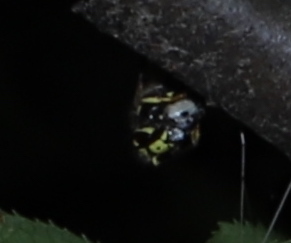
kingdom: Animalia
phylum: Arthropoda
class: Insecta
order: Hymenoptera
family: Vespidae
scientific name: Vespidae
